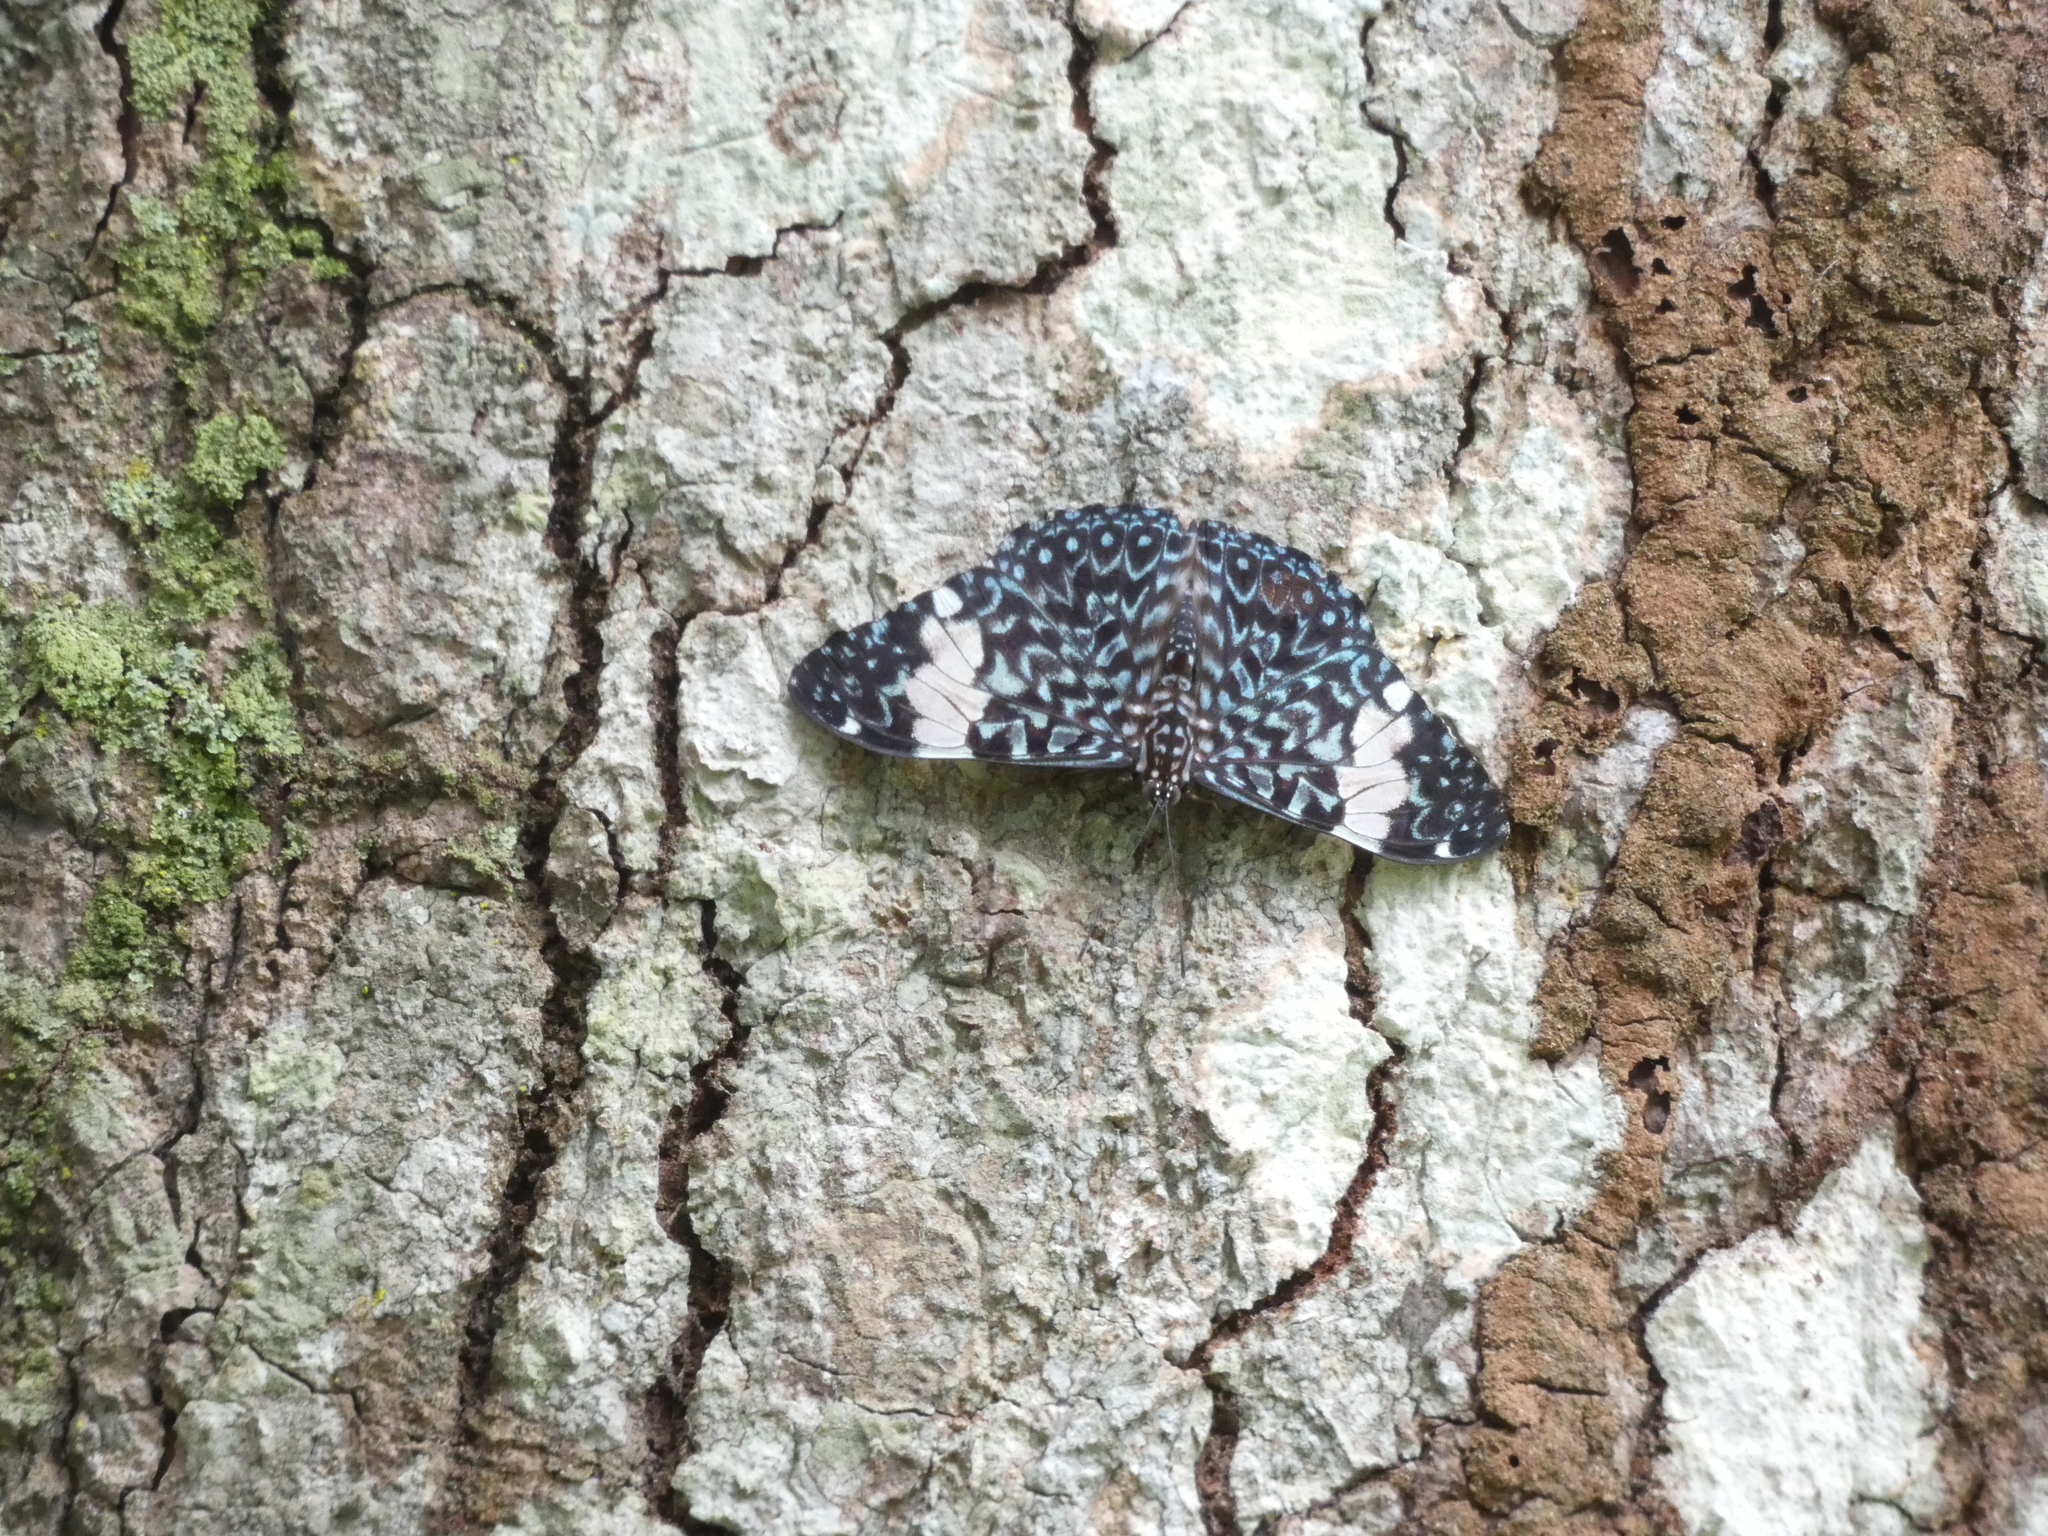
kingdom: Animalia
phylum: Arthropoda
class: Insecta
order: Lepidoptera
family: Nymphalidae
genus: Hamadryas
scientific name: Hamadryas amphinome
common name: Red cracker
